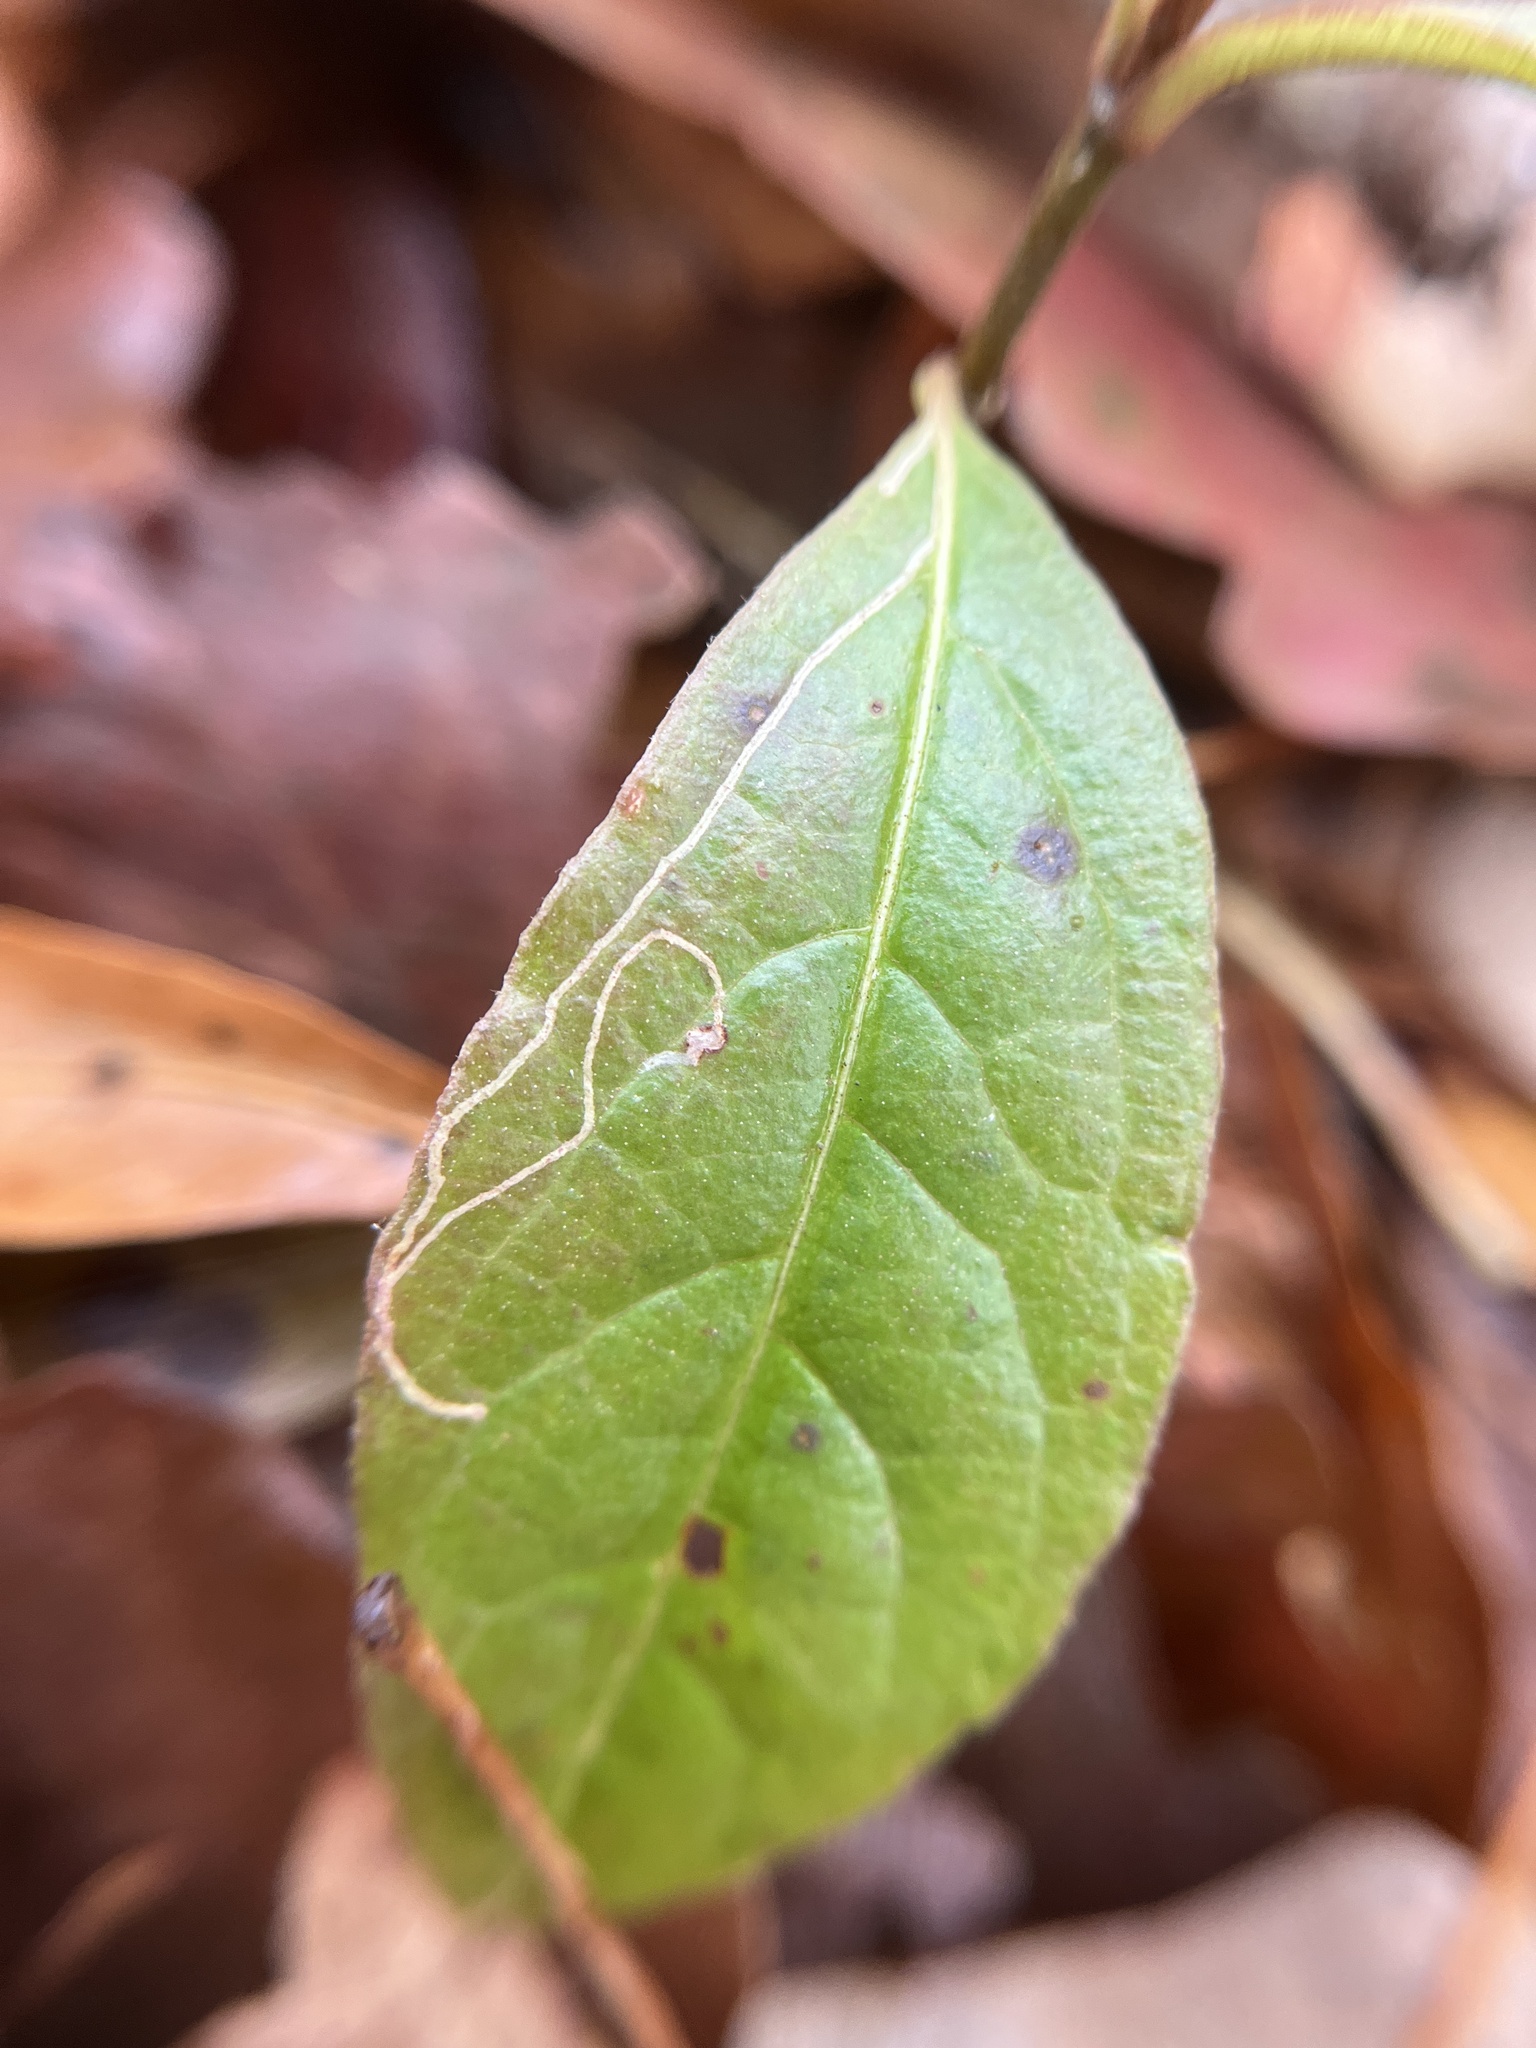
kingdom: Animalia
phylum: Arthropoda
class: Insecta
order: Lepidoptera
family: Gracillariidae
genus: Marmara
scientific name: Marmara viburnella
